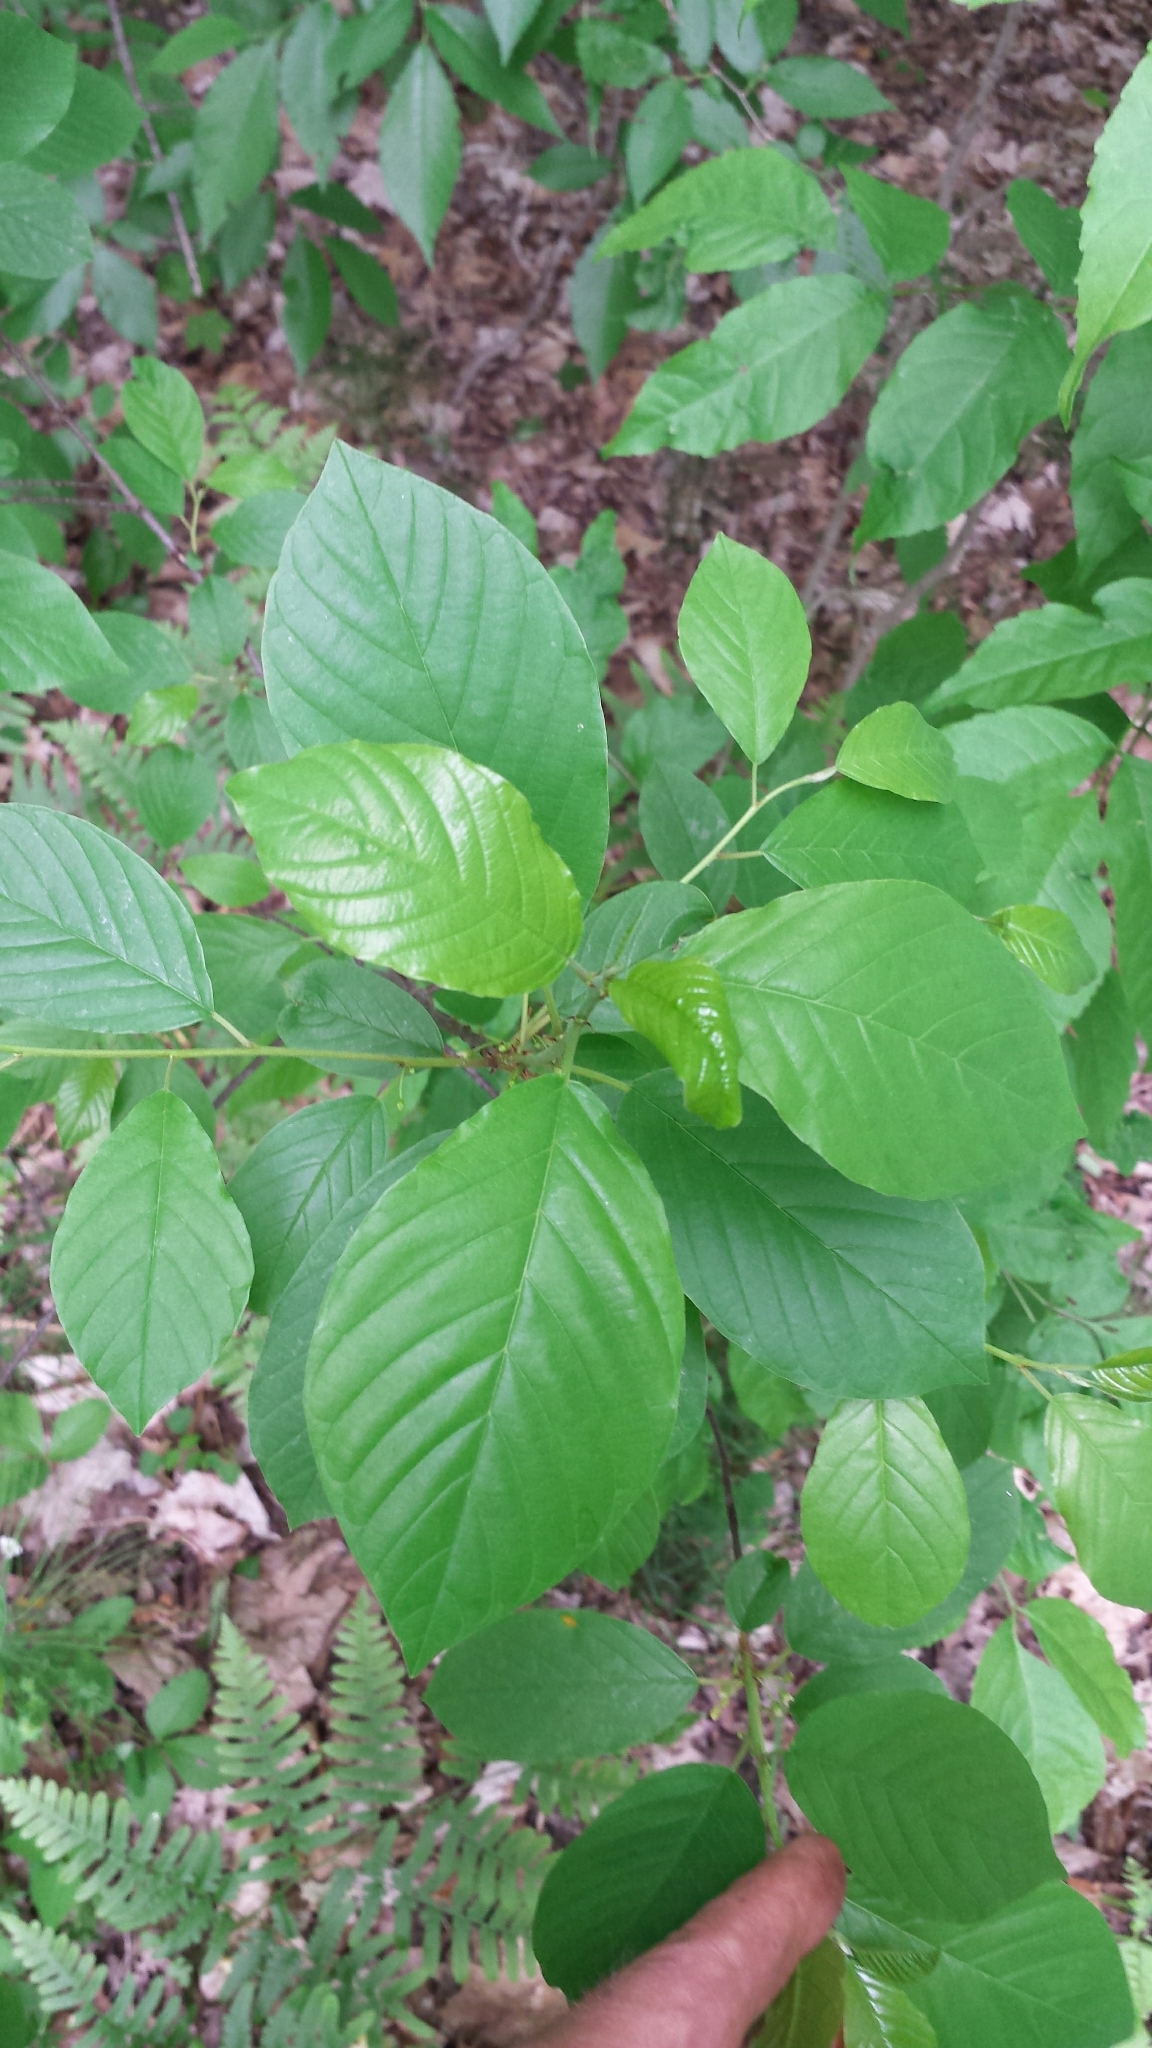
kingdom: Plantae
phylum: Tracheophyta
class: Magnoliopsida
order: Rosales
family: Rhamnaceae
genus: Frangula
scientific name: Frangula alnus
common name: Alder buckthorn
